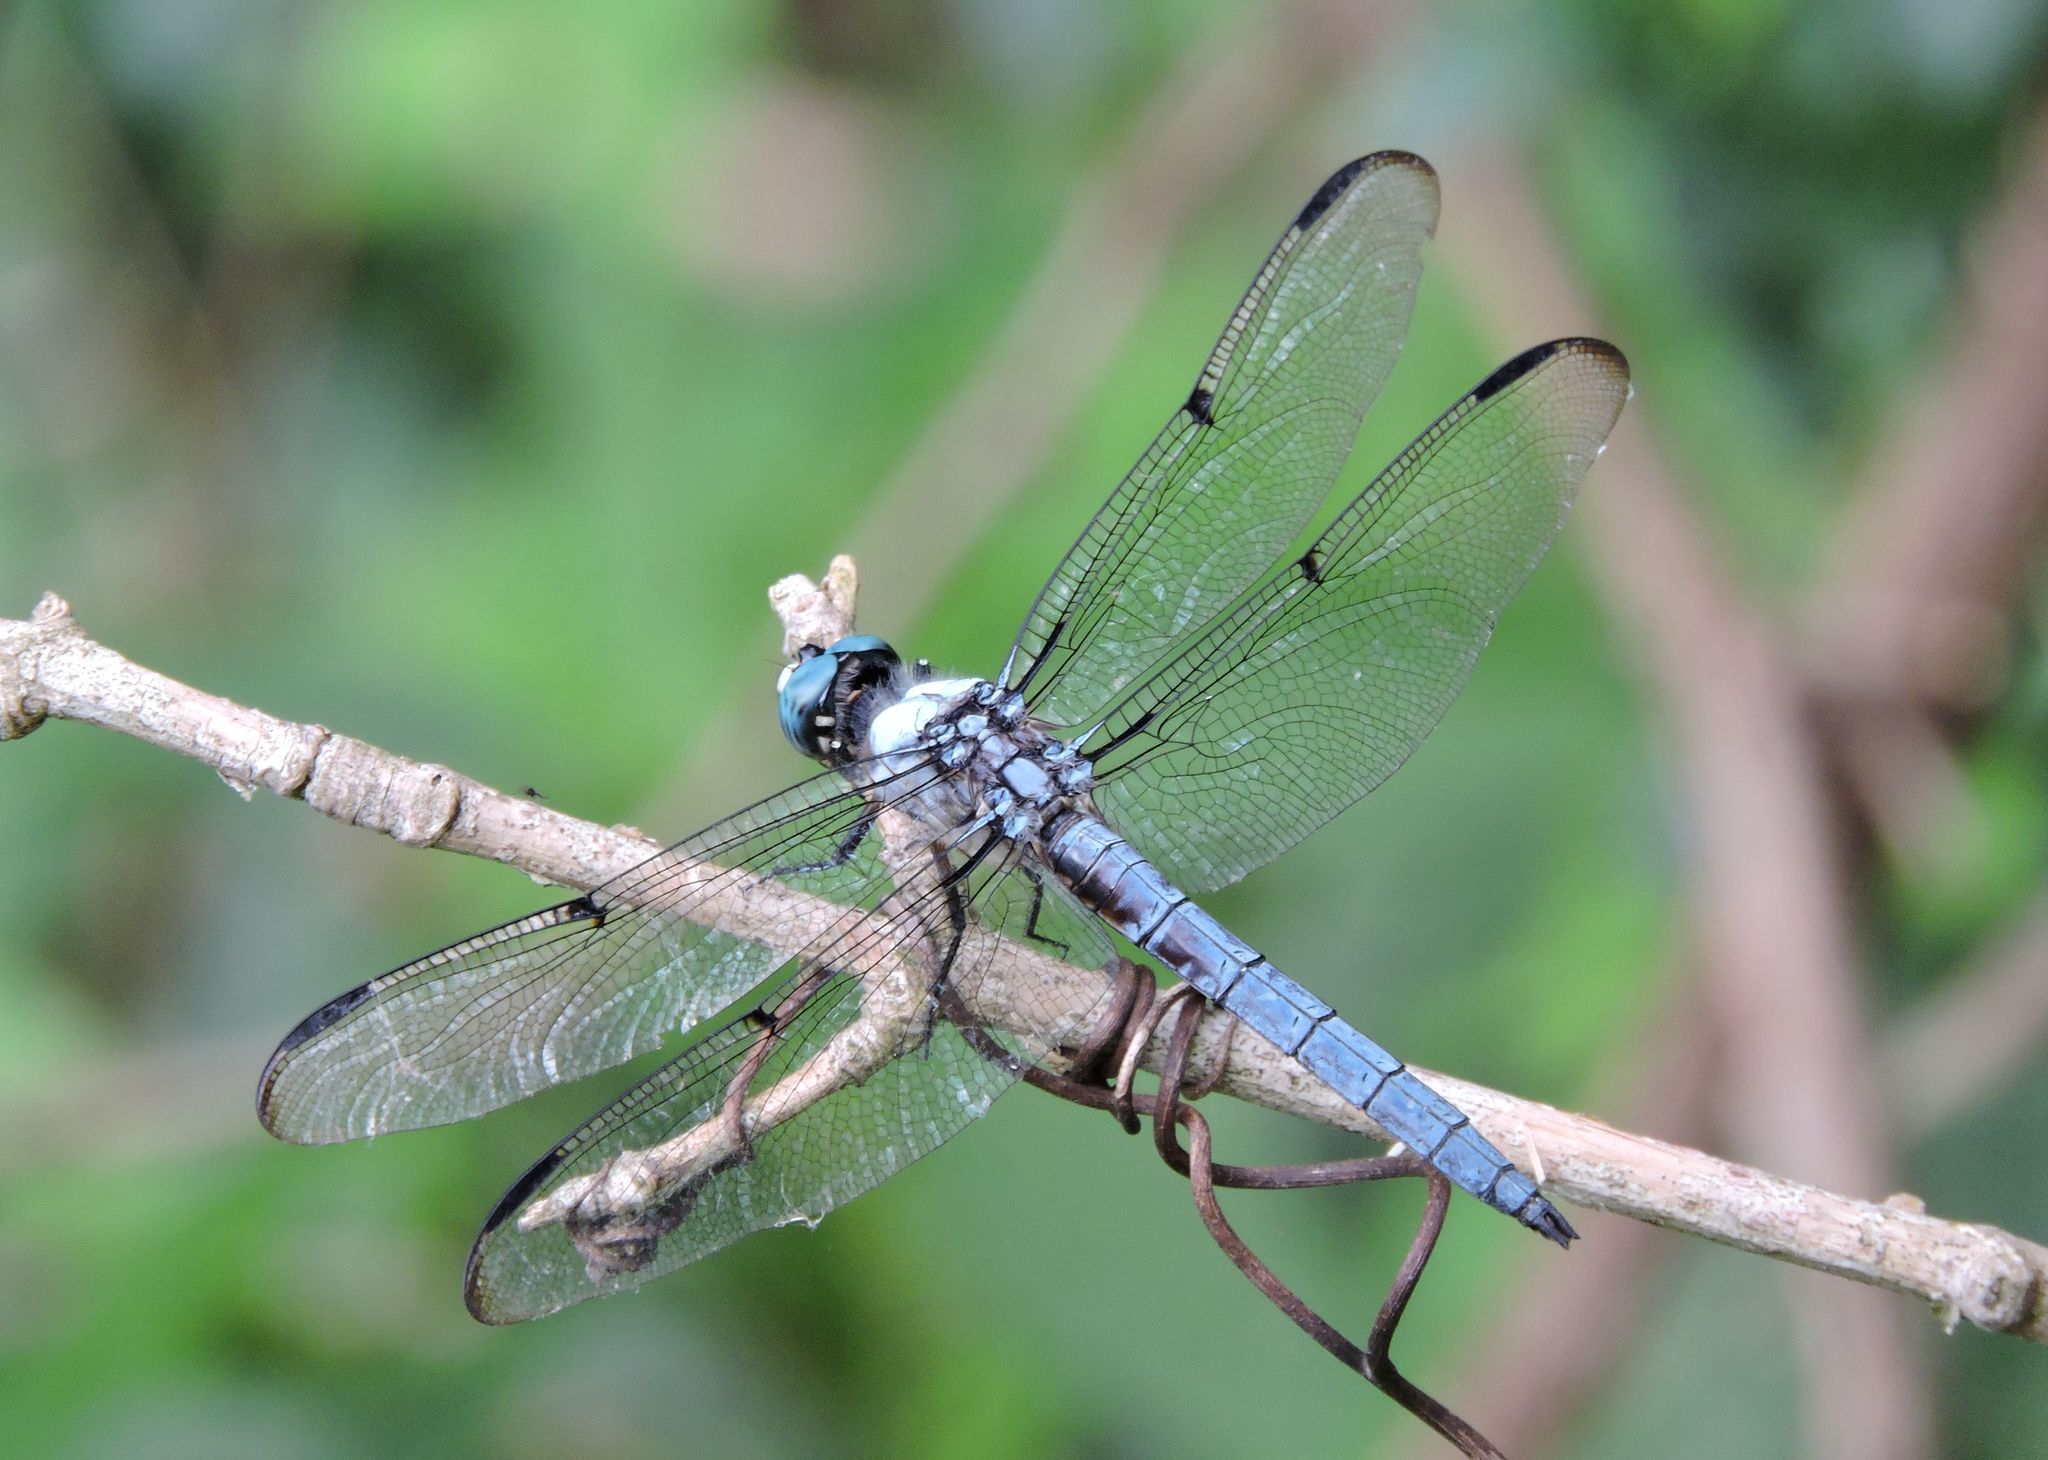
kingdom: Animalia
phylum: Arthropoda
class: Insecta
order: Odonata
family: Libellulidae
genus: Libellula
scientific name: Libellula vibrans
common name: Great blue skimmer
